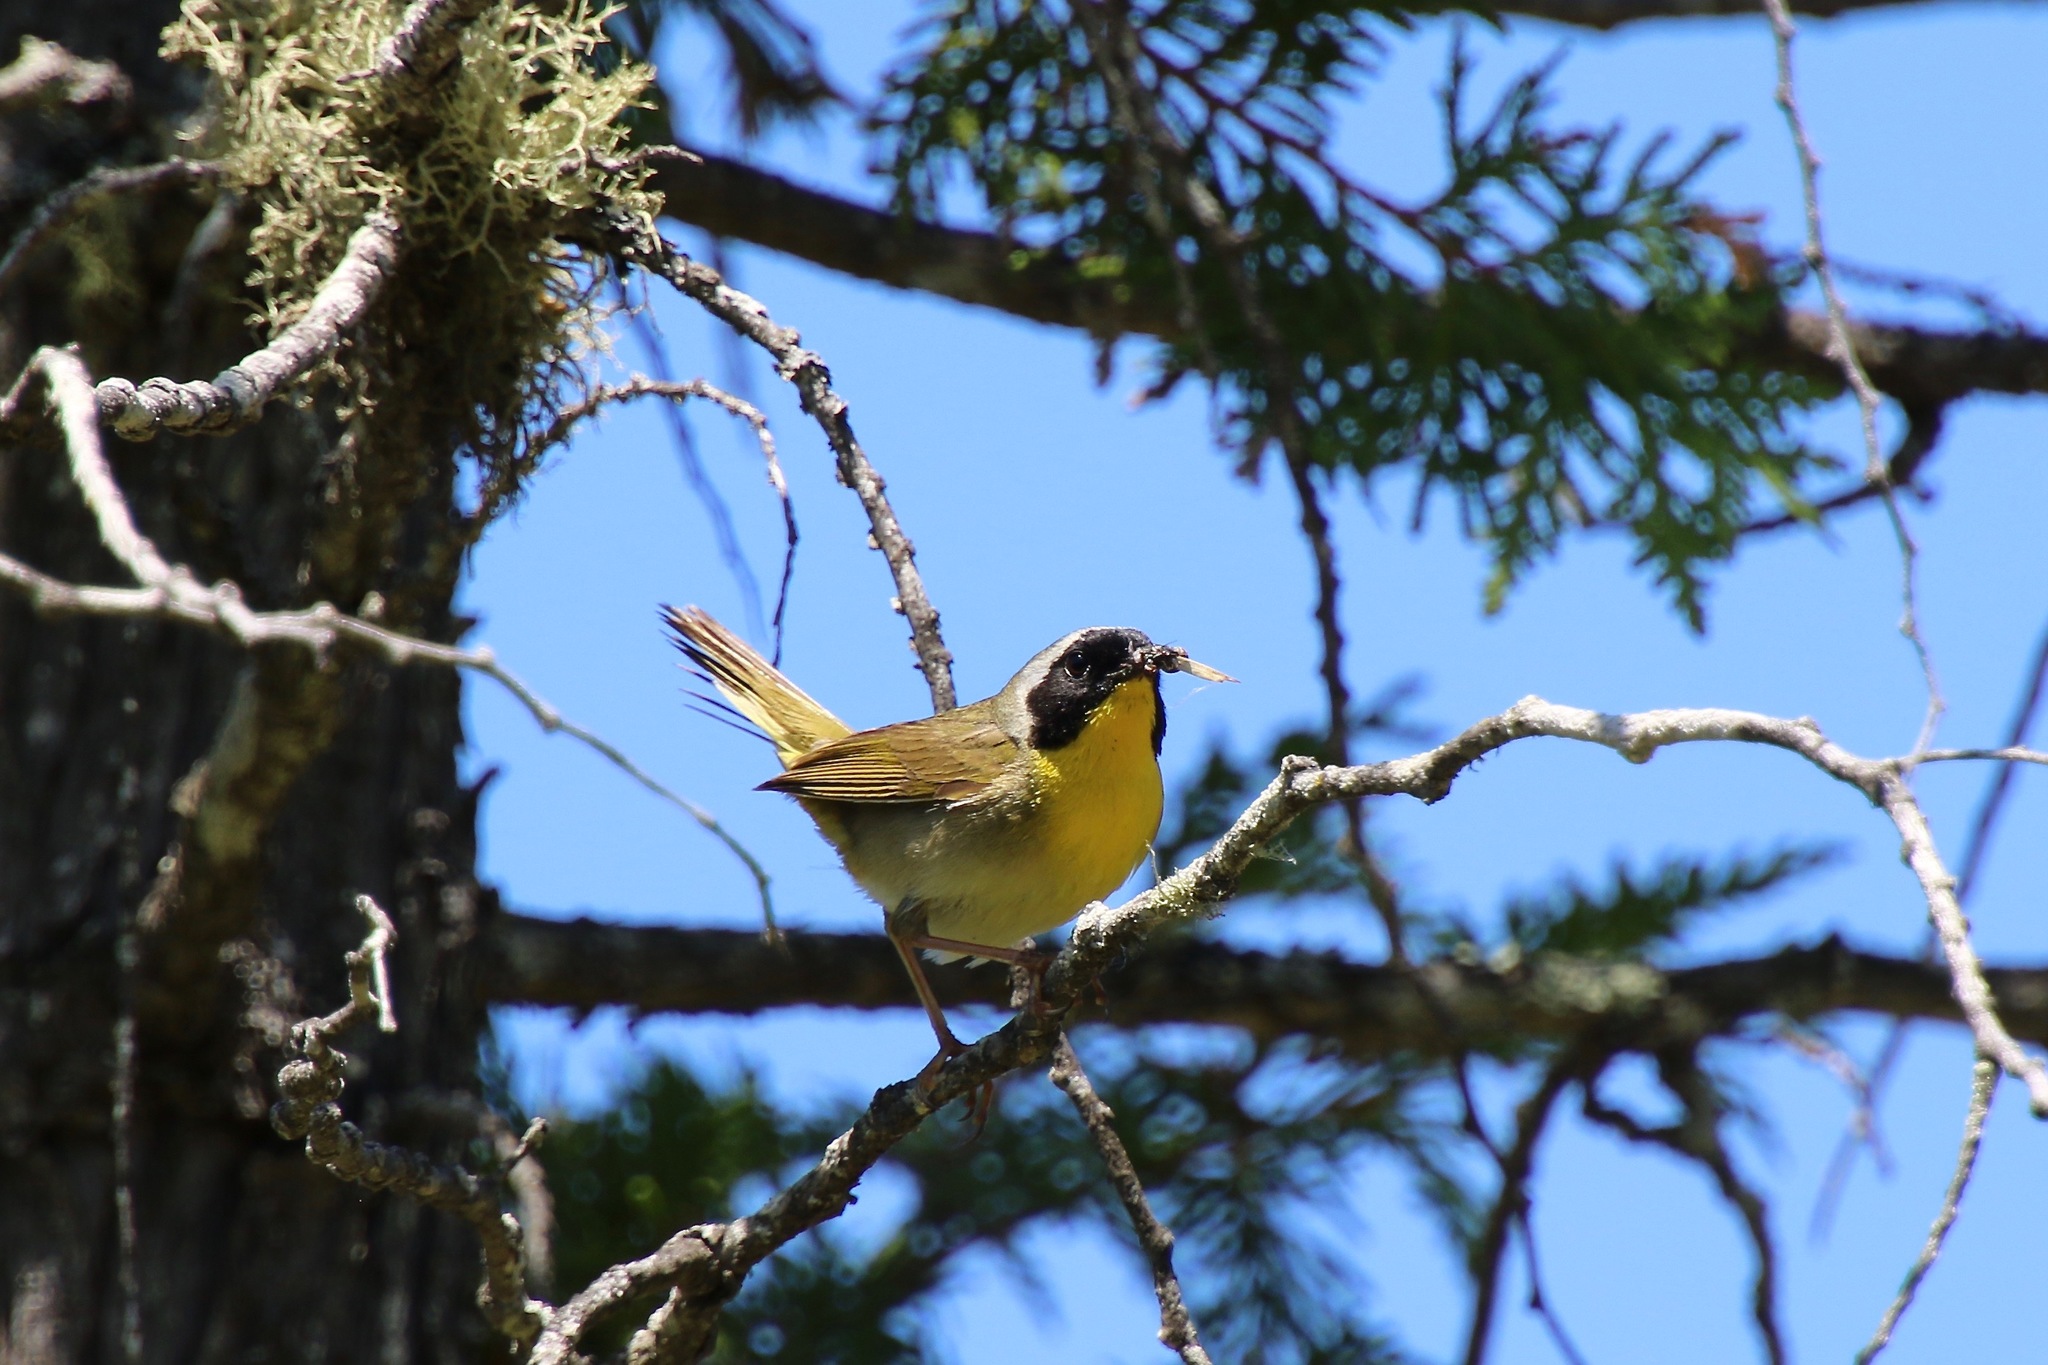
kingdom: Animalia
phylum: Chordata
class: Aves
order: Passeriformes
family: Parulidae
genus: Geothlypis
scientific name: Geothlypis trichas
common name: Common yellowthroat
